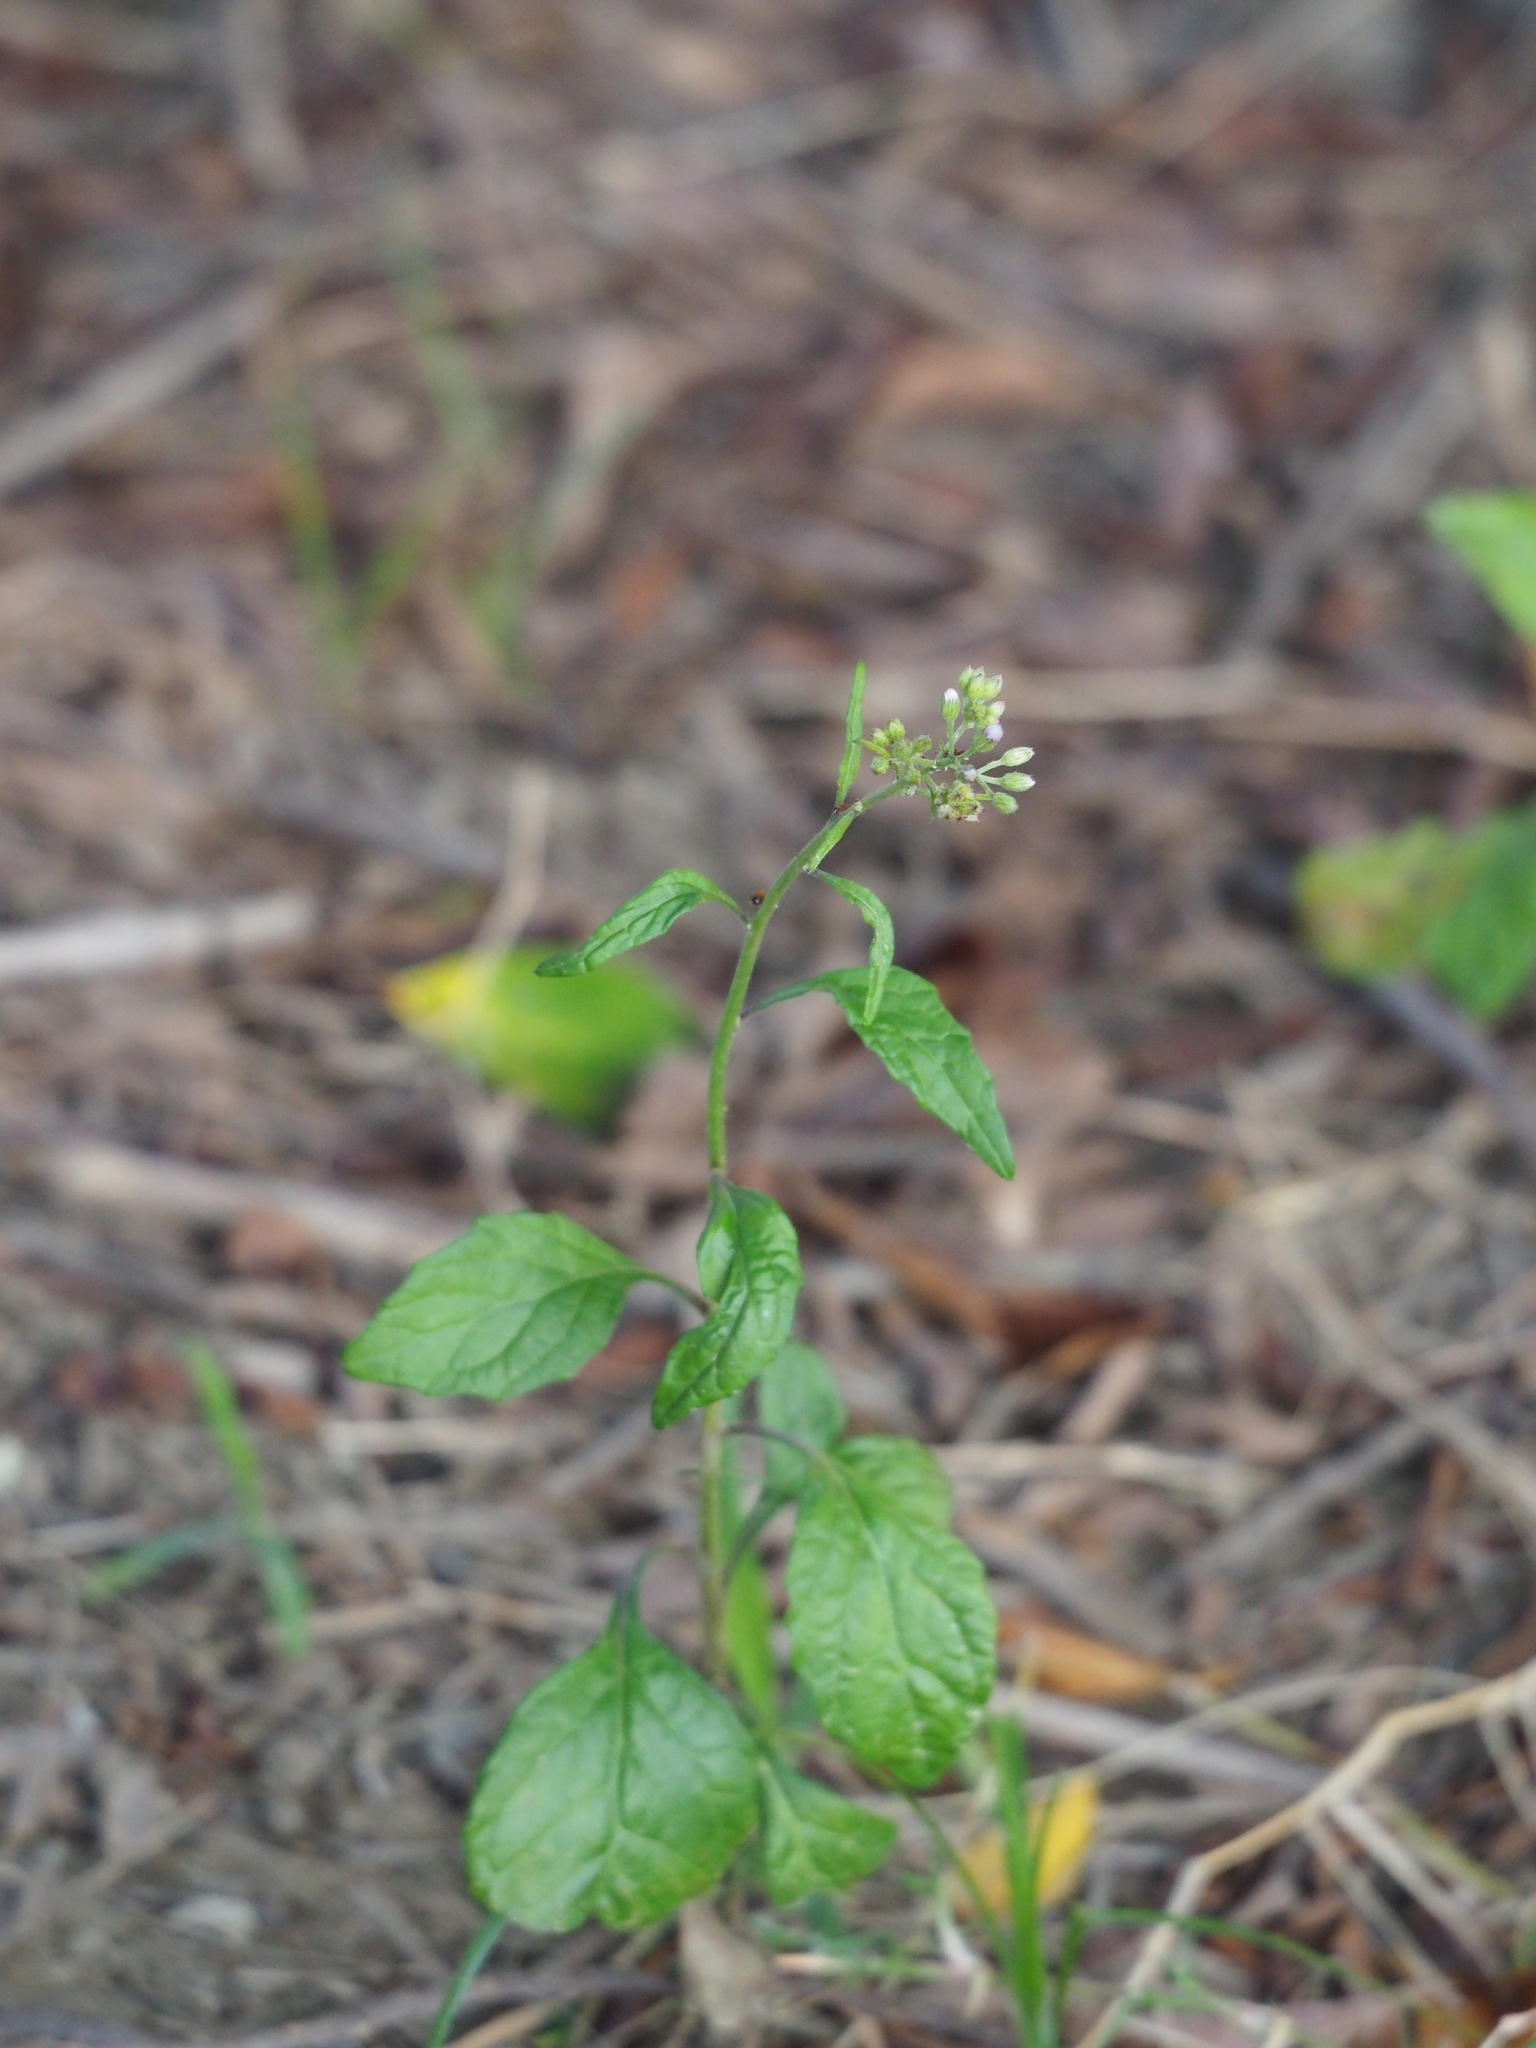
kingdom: Plantae
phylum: Tracheophyta
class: Magnoliopsida
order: Asterales
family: Asteraceae
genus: Cyanthillium
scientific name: Cyanthillium cinereum
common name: Little ironweed
